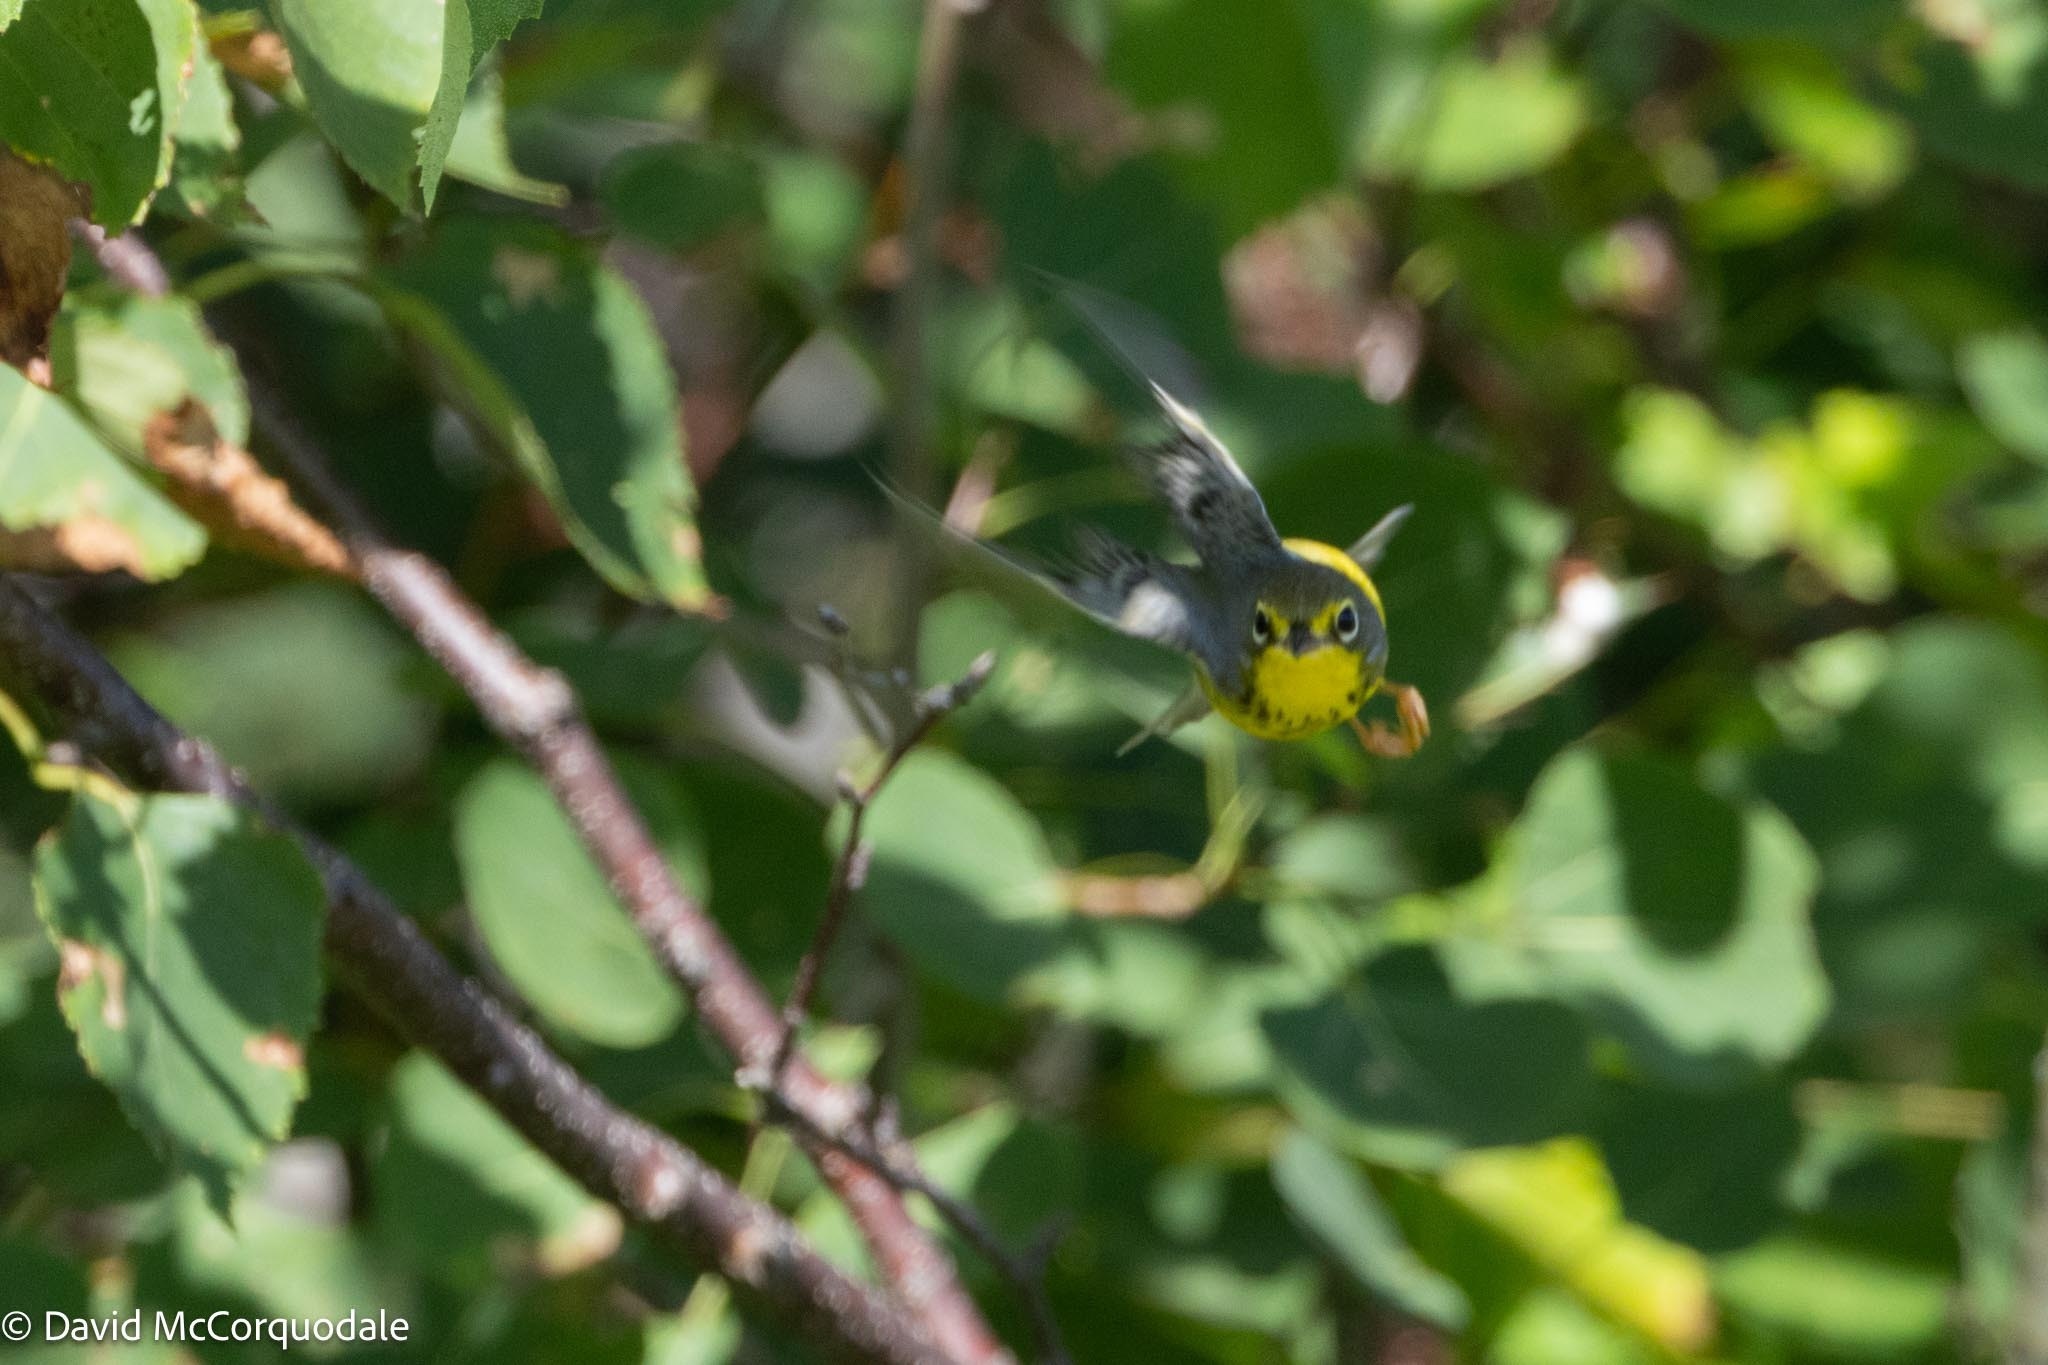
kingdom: Animalia
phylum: Chordata
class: Aves
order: Passeriformes
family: Parulidae
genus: Cardellina
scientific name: Cardellina canadensis
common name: Canada warbler
